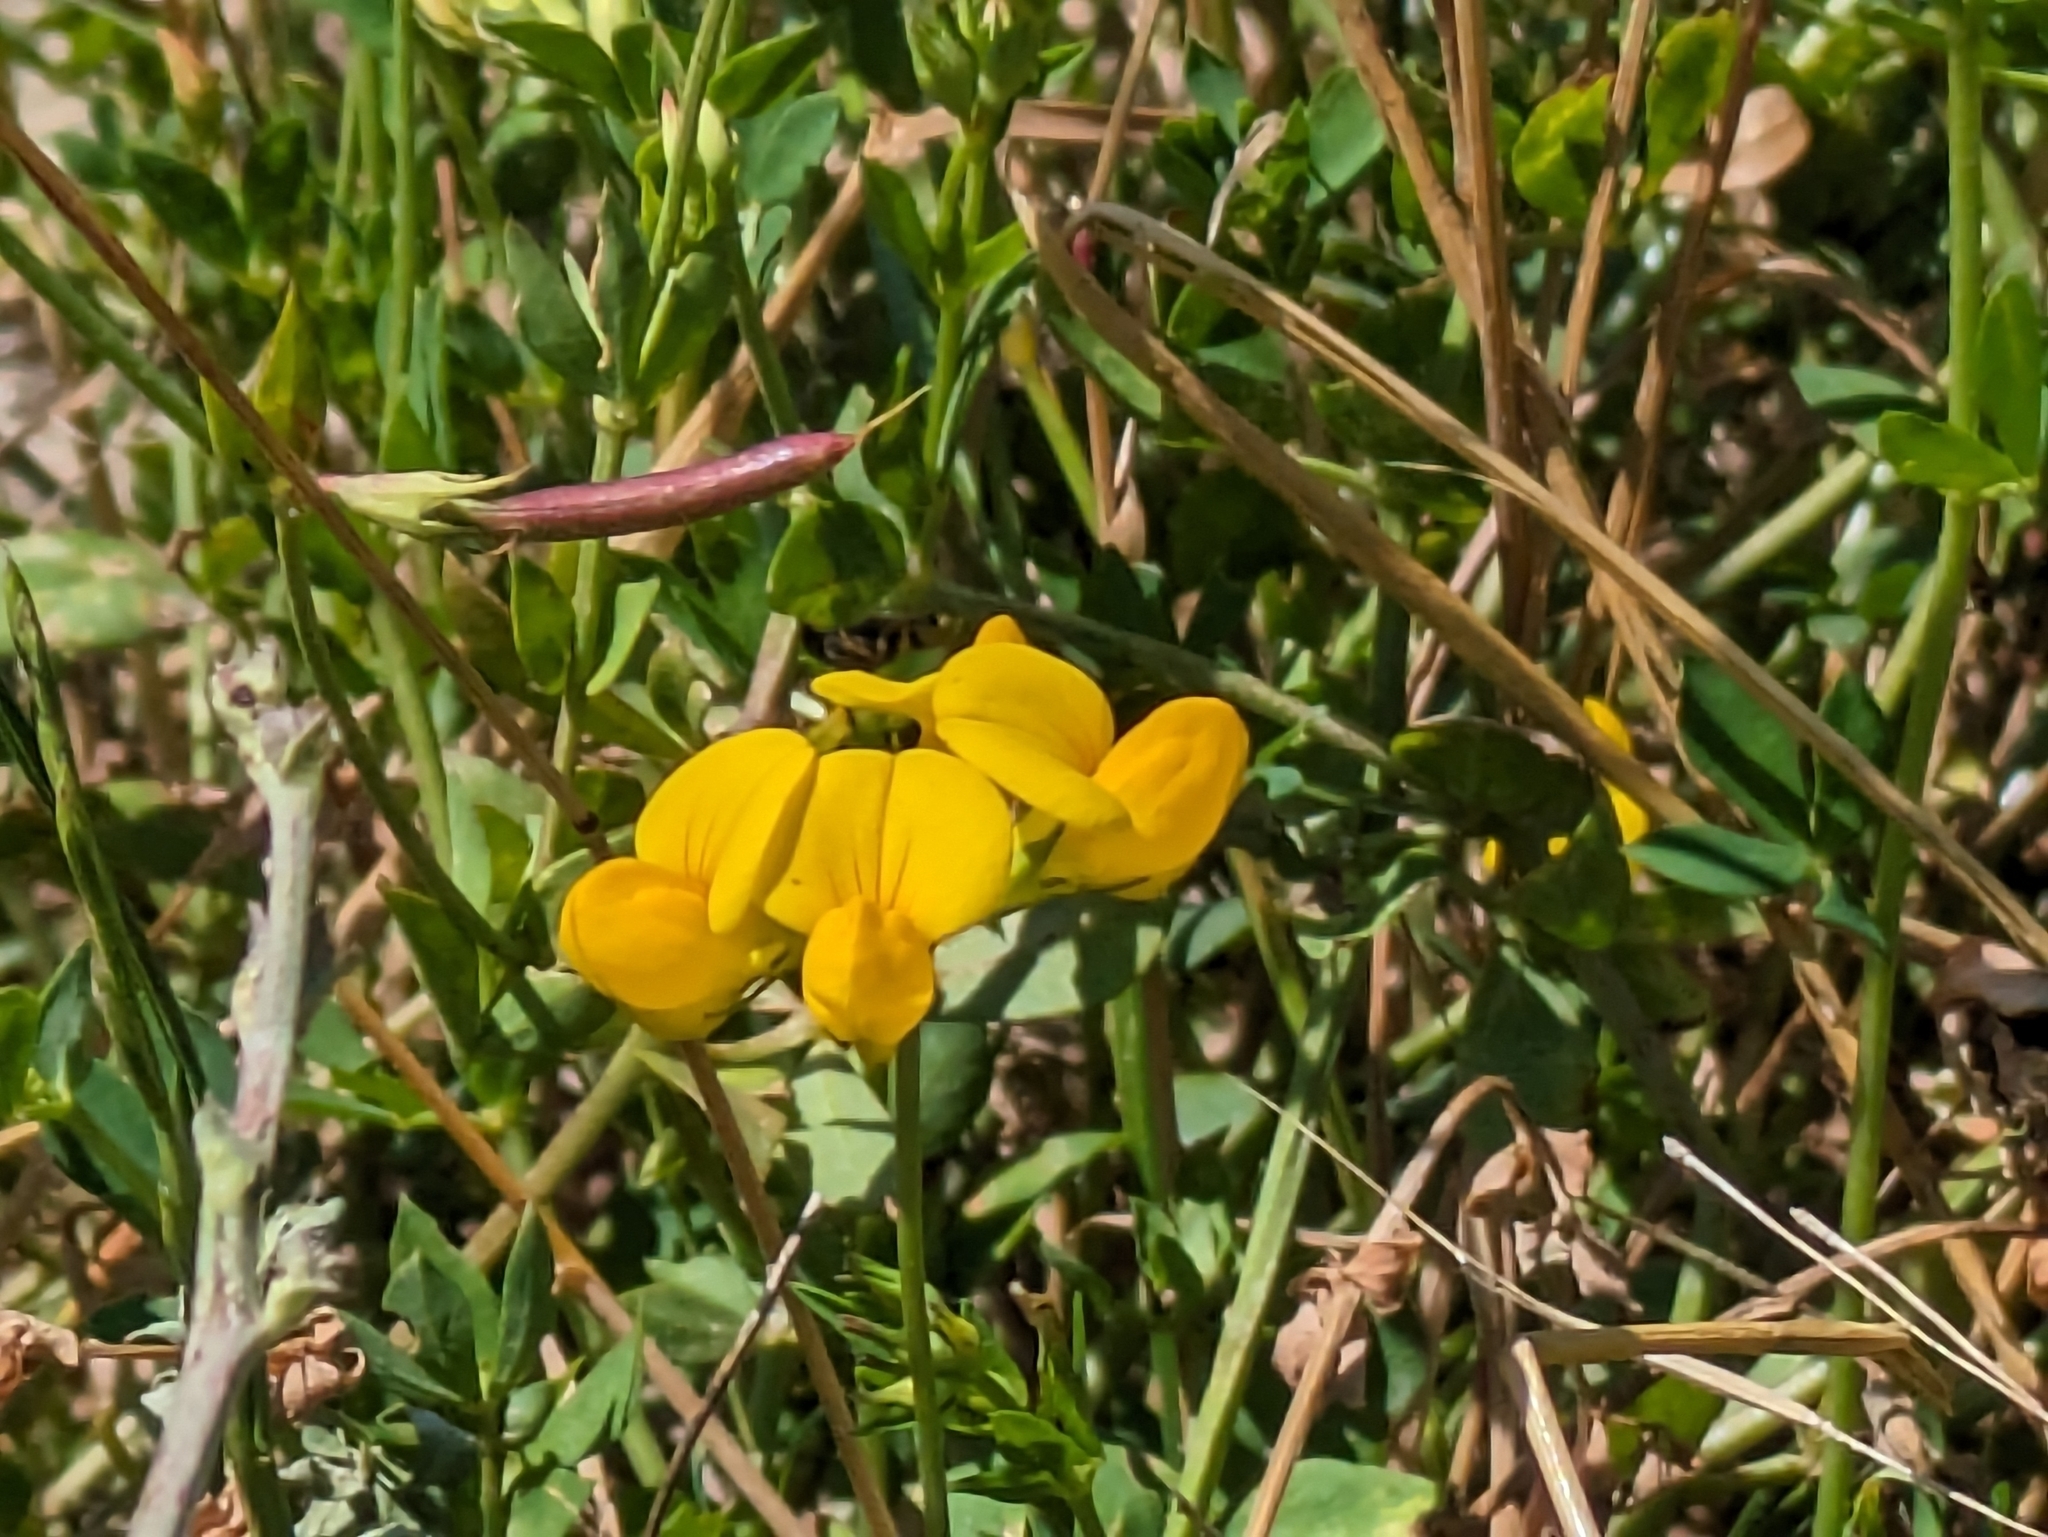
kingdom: Plantae
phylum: Tracheophyta
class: Magnoliopsida
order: Fabales
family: Fabaceae
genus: Lotus
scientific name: Lotus corniculatus
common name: Common bird's-foot-trefoil
